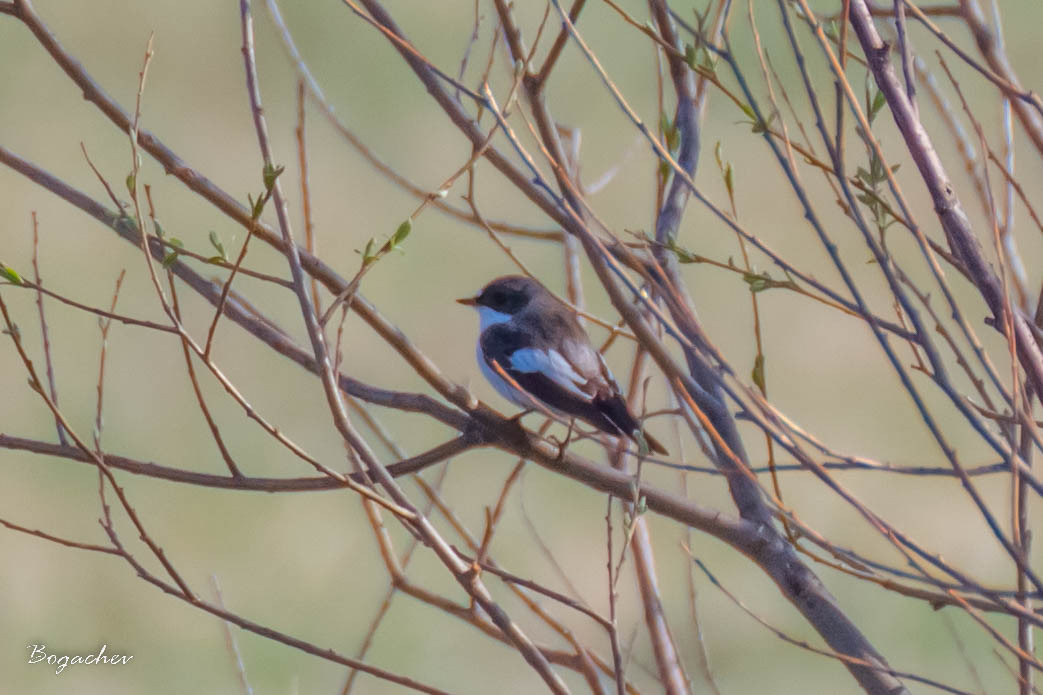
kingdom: Animalia
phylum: Chordata
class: Aves
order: Passeriformes
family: Muscicapidae
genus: Ficedula
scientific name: Ficedula hypoleuca
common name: European pied flycatcher
